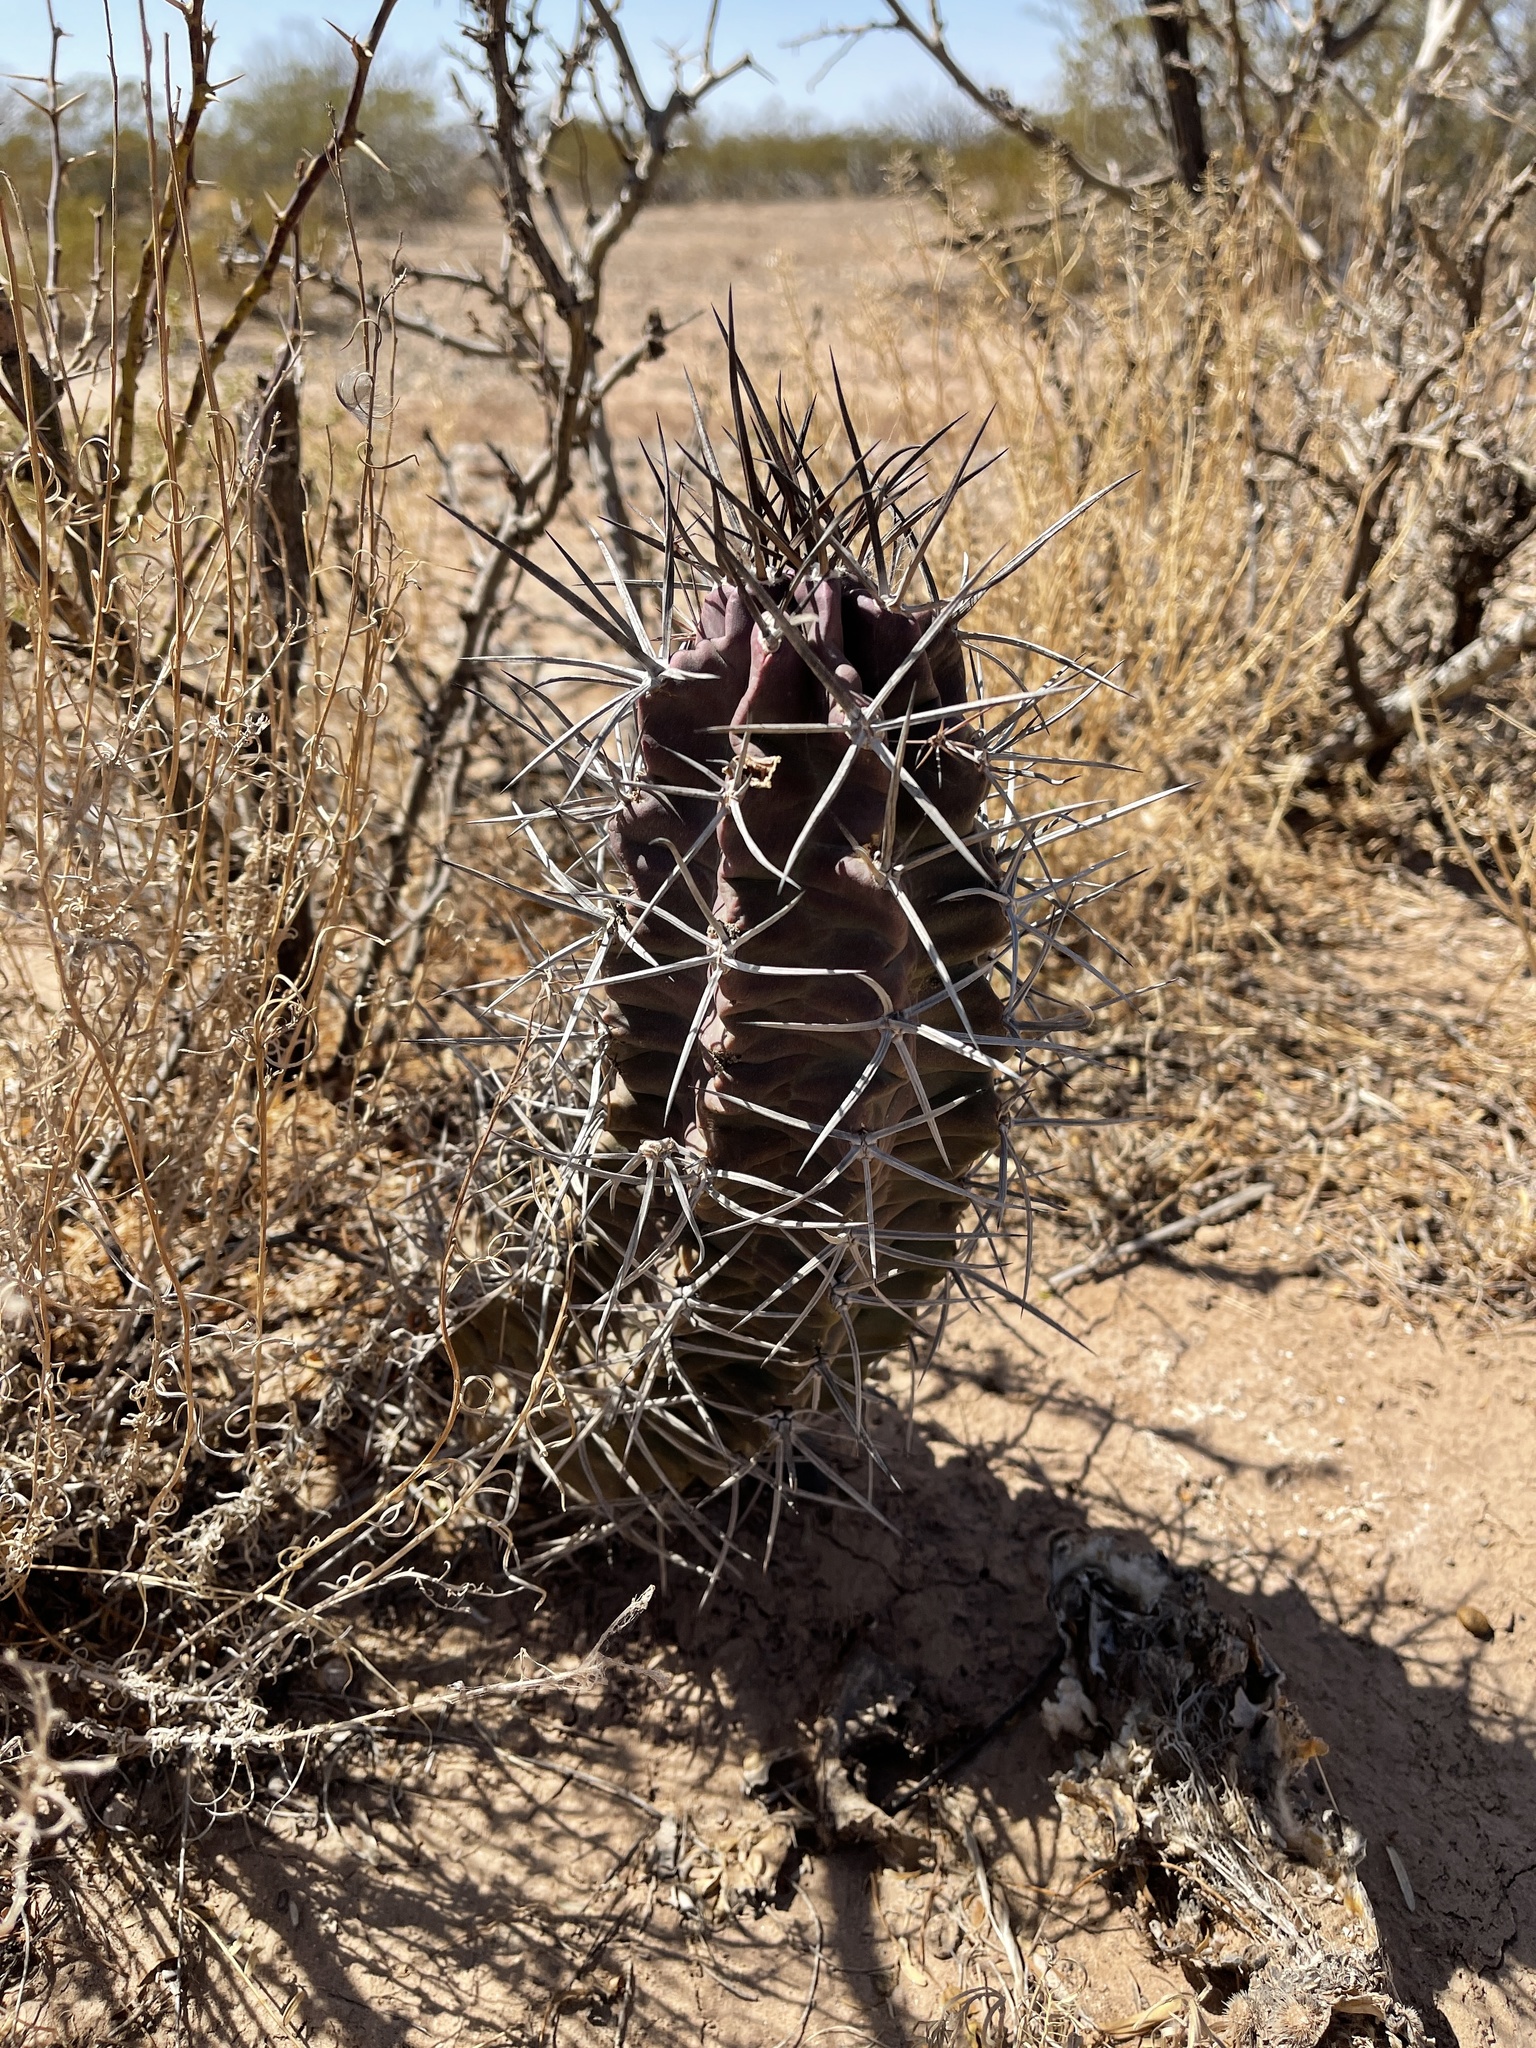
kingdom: Plantae
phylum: Tracheophyta
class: Magnoliopsida
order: Caryophyllales
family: Cactaceae
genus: Echinocereus
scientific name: Echinocereus triglochidiatus
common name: Claretcup hedgehog
